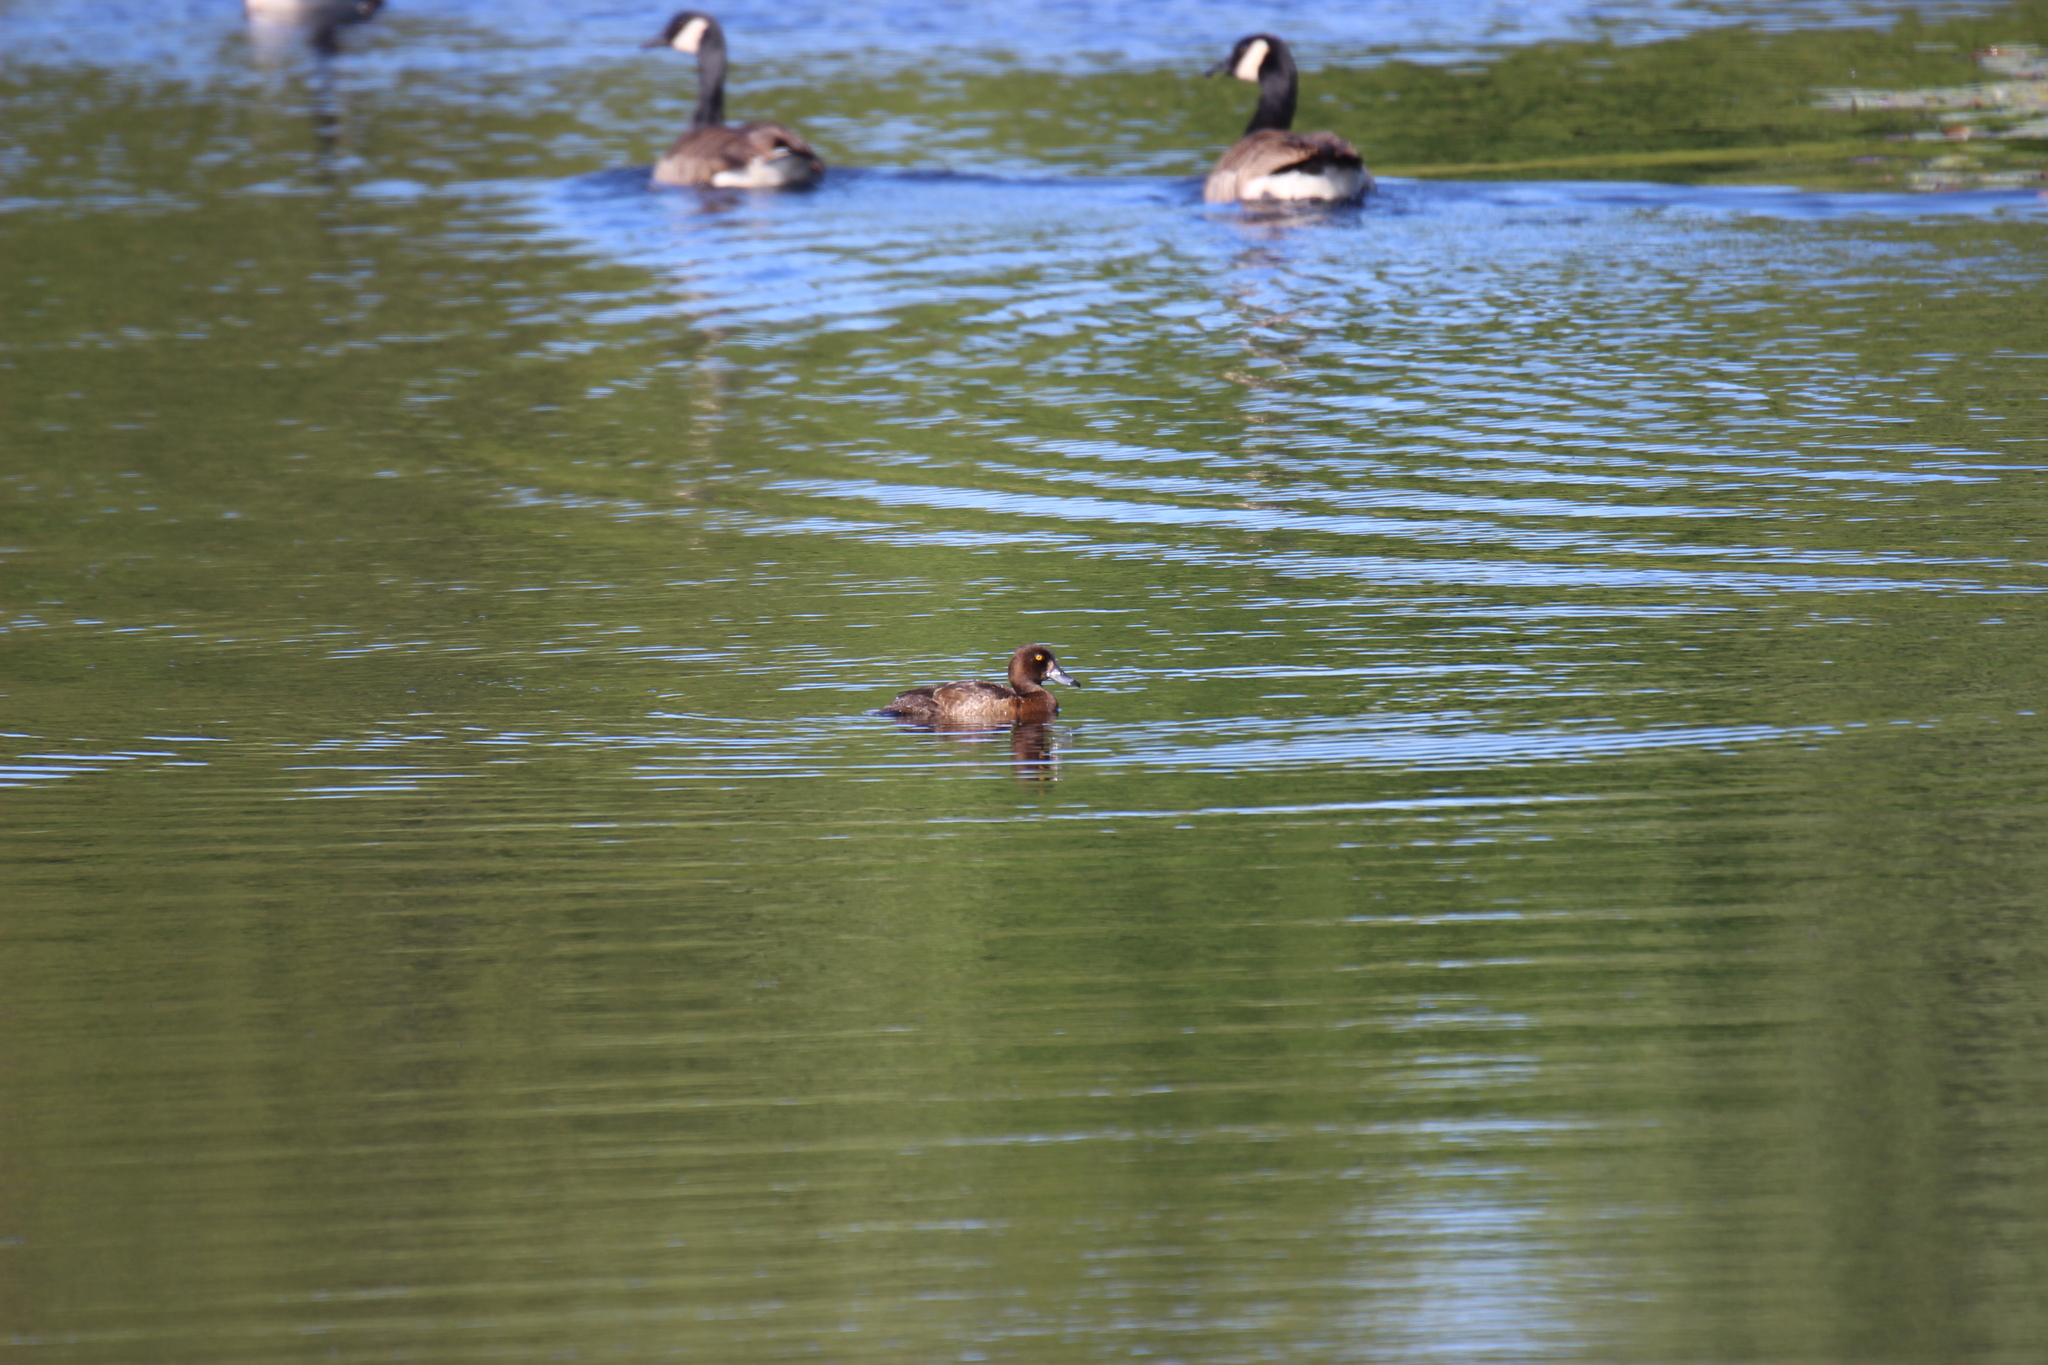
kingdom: Animalia
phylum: Chordata
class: Aves
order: Anseriformes
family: Anatidae
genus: Aythya
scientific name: Aythya fuligula
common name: Tufted duck
